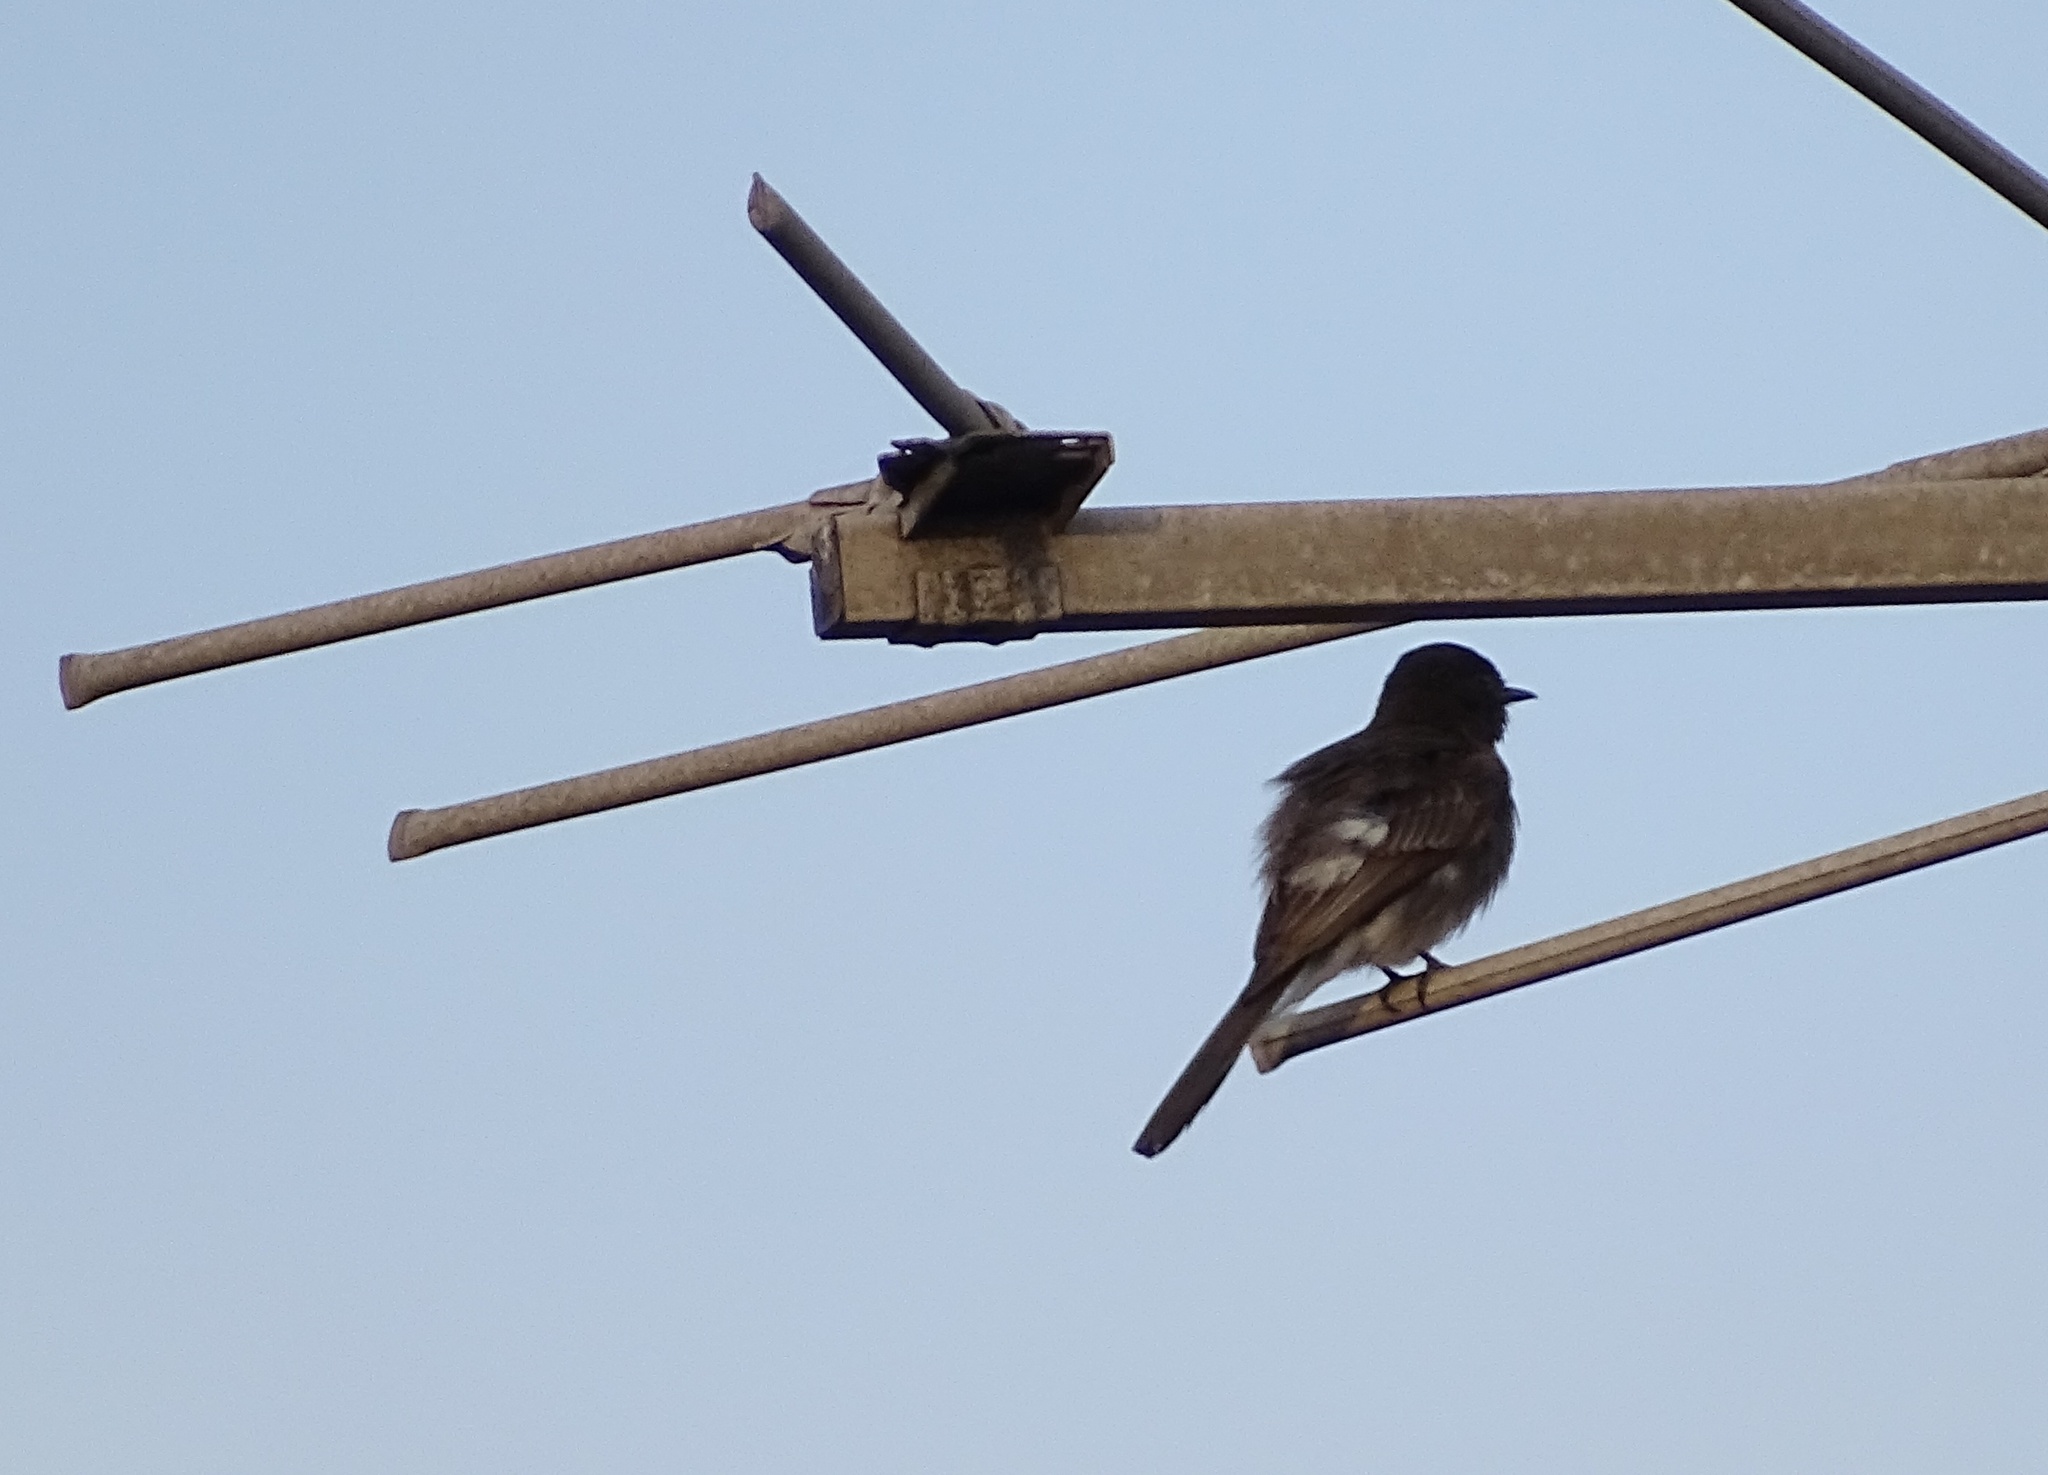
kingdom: Animalia
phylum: Chordata
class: Aves
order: Passeriformes
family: Mimidae
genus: Mimus
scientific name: Mimus polyglottos
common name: Northern mockingbird
